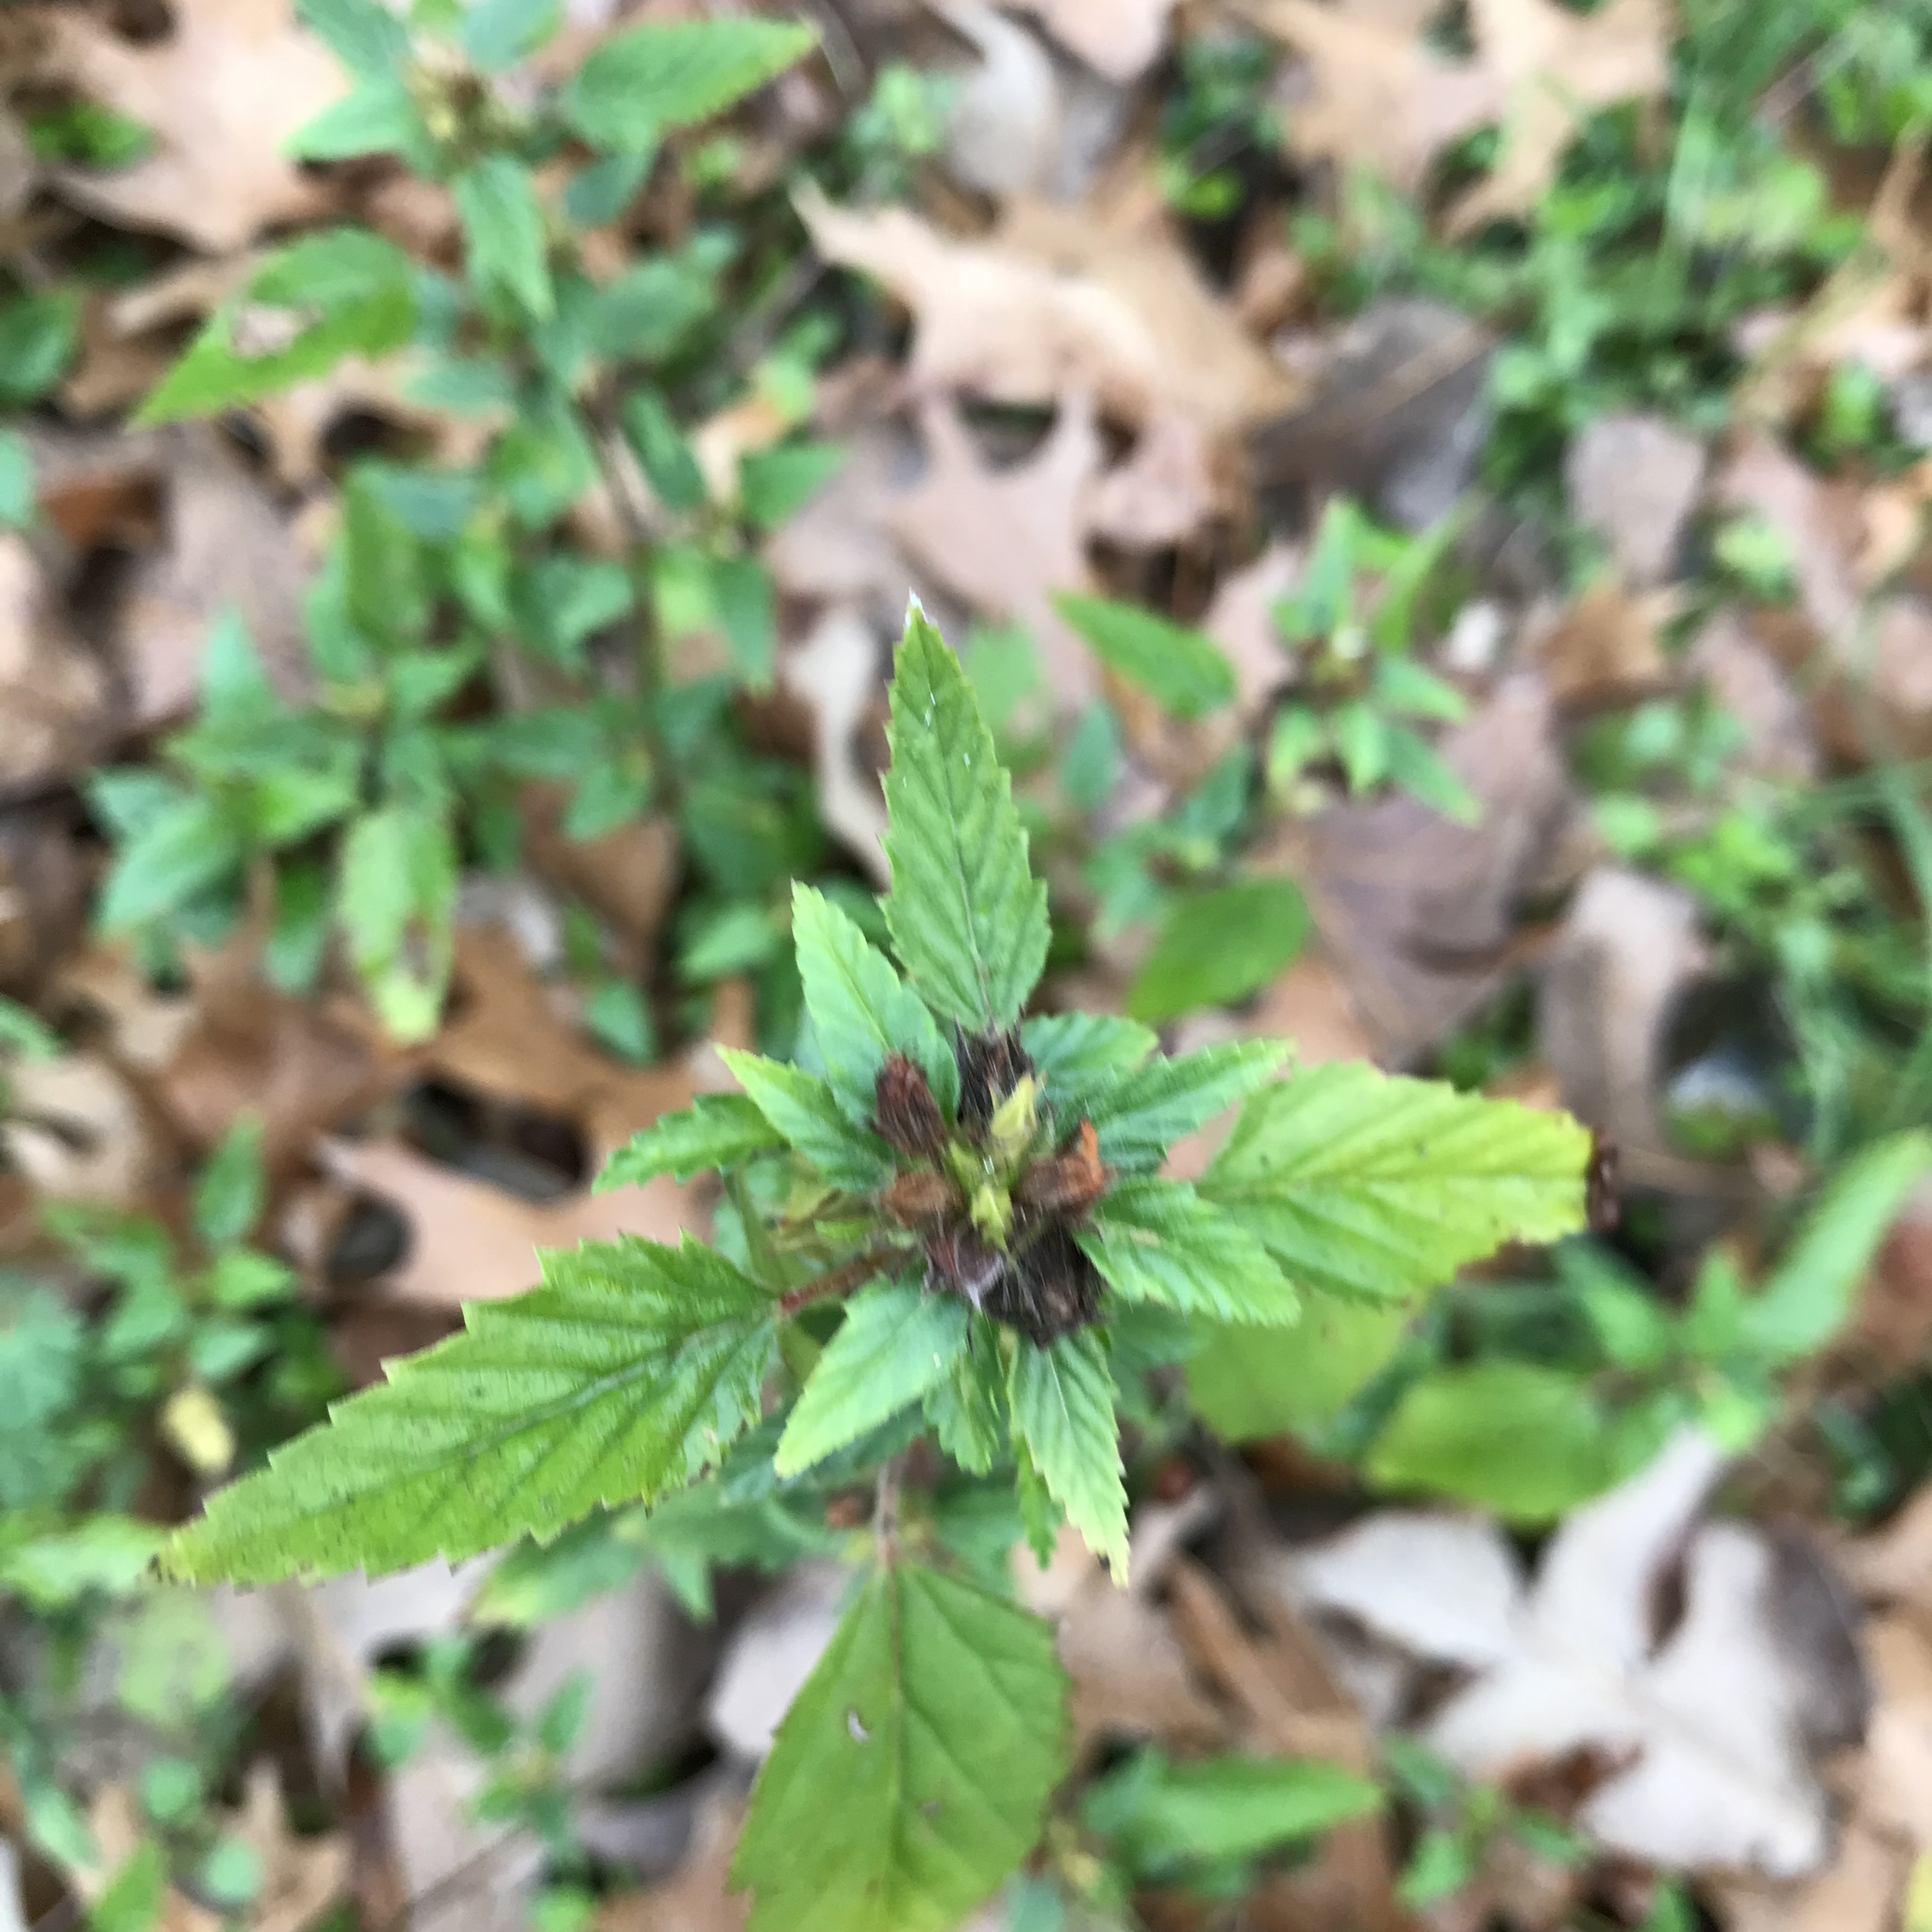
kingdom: Plantae
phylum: Tracheophyta
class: Magnoliopsida
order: Malvales
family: Malvaceae
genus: Malvastrum
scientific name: Malvastrum coromandelianum
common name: Threelobe false mallow
